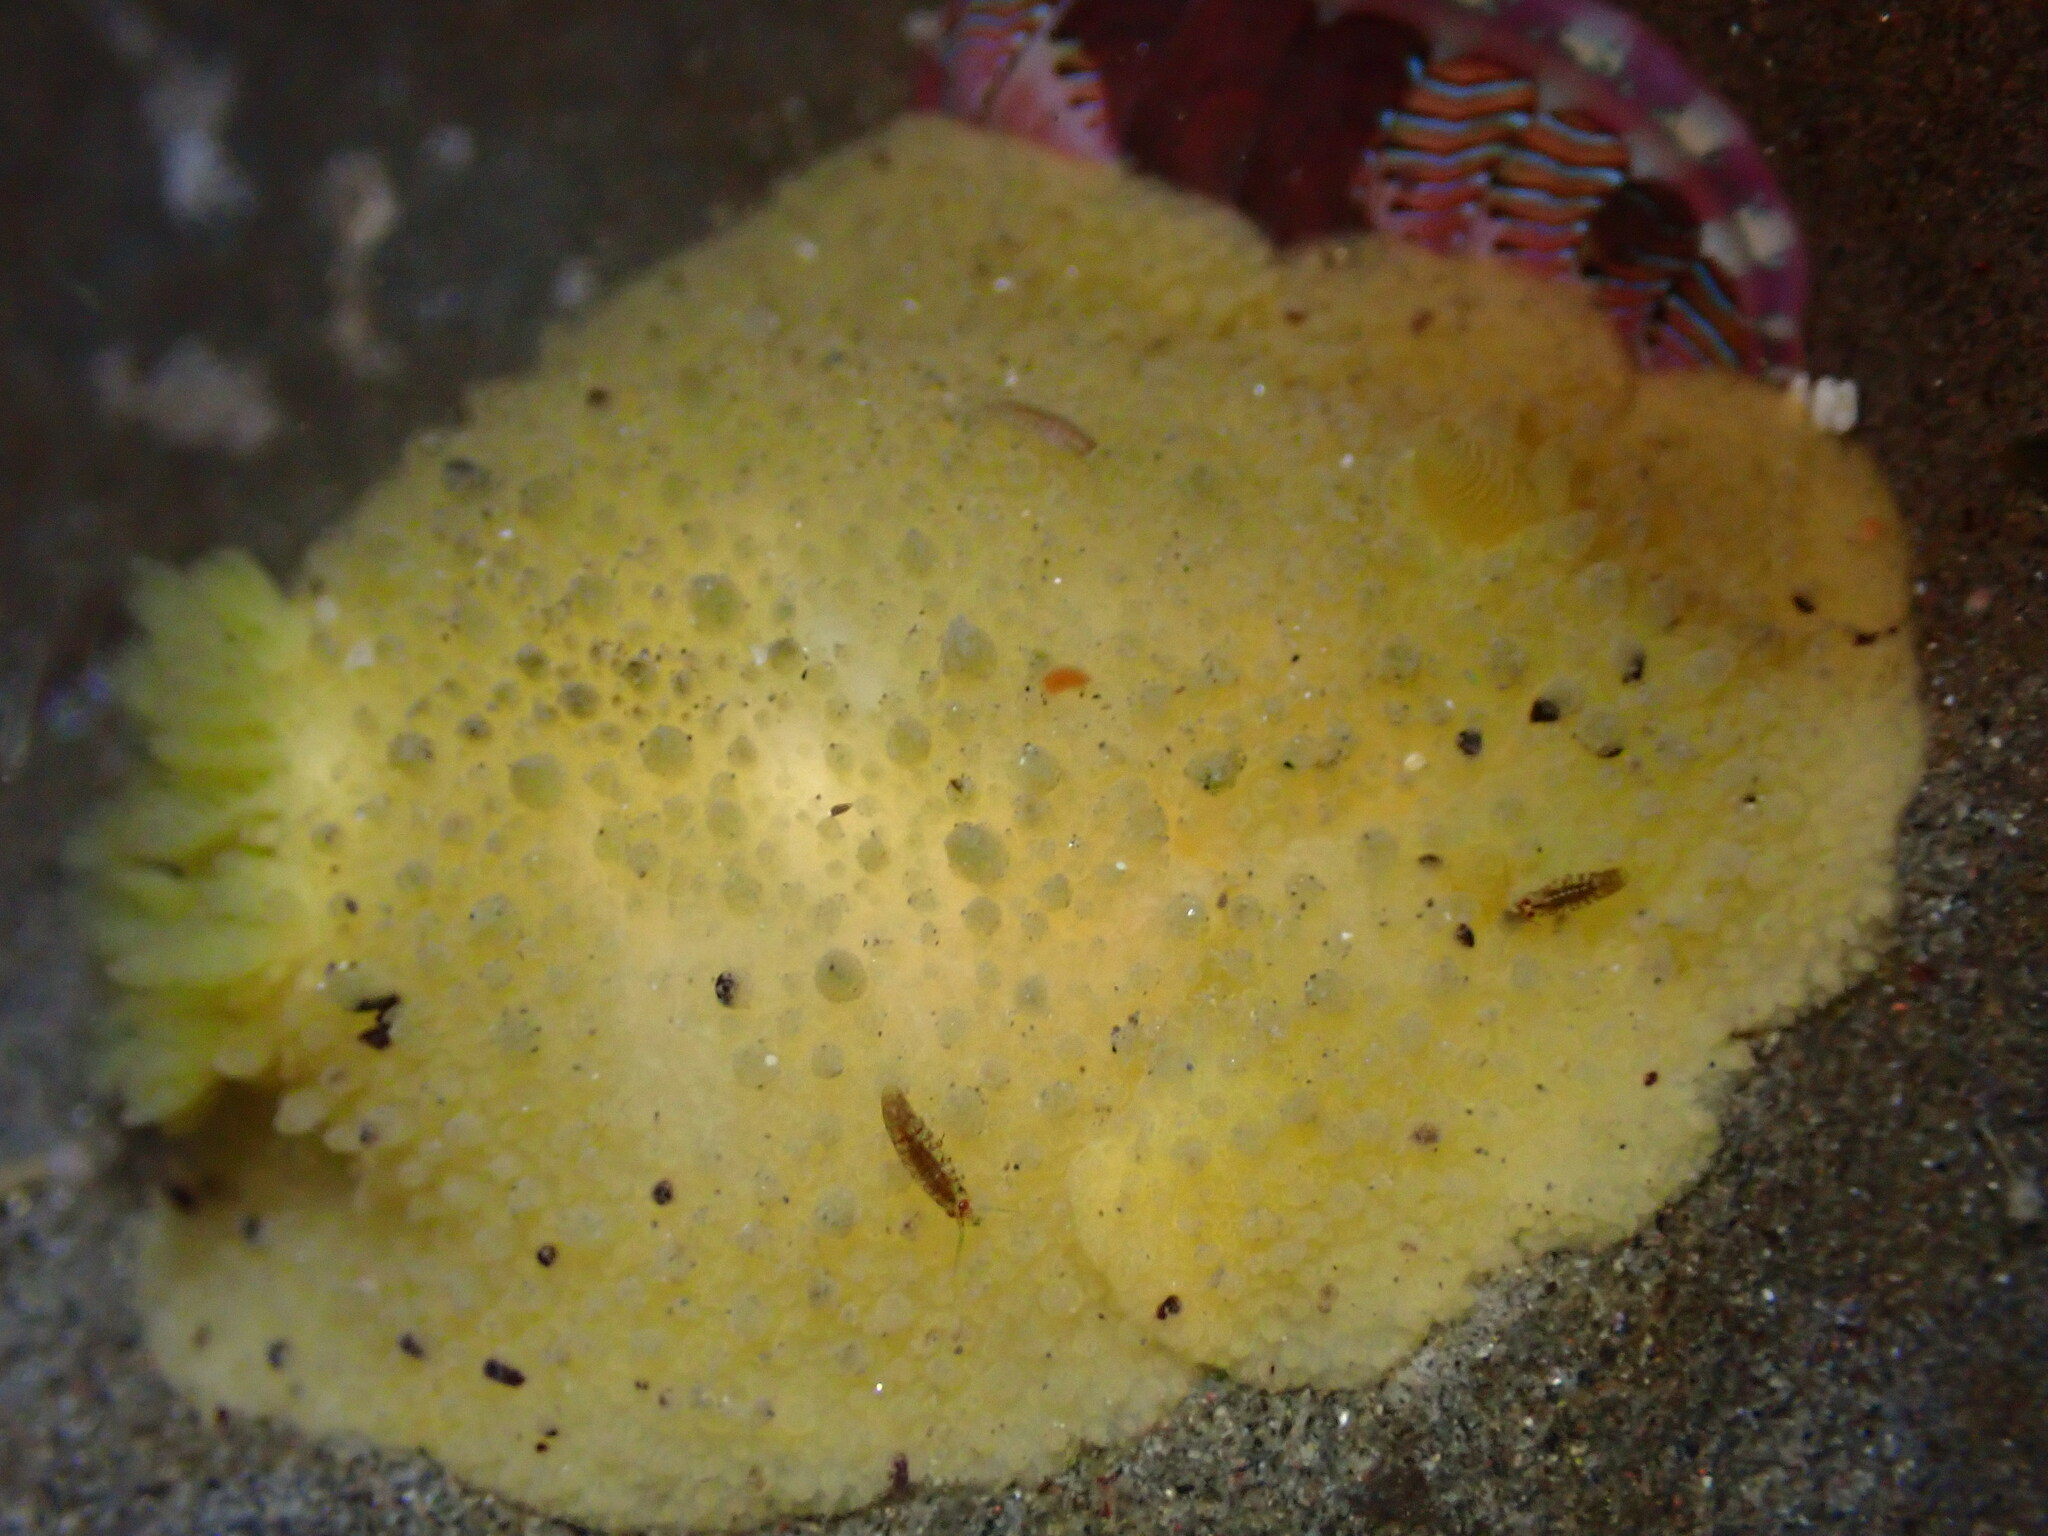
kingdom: Animalia
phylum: Mollusca
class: Gastropoda
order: Nudibranchia
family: Dorididae
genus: Doris
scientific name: Doris montereyensis
